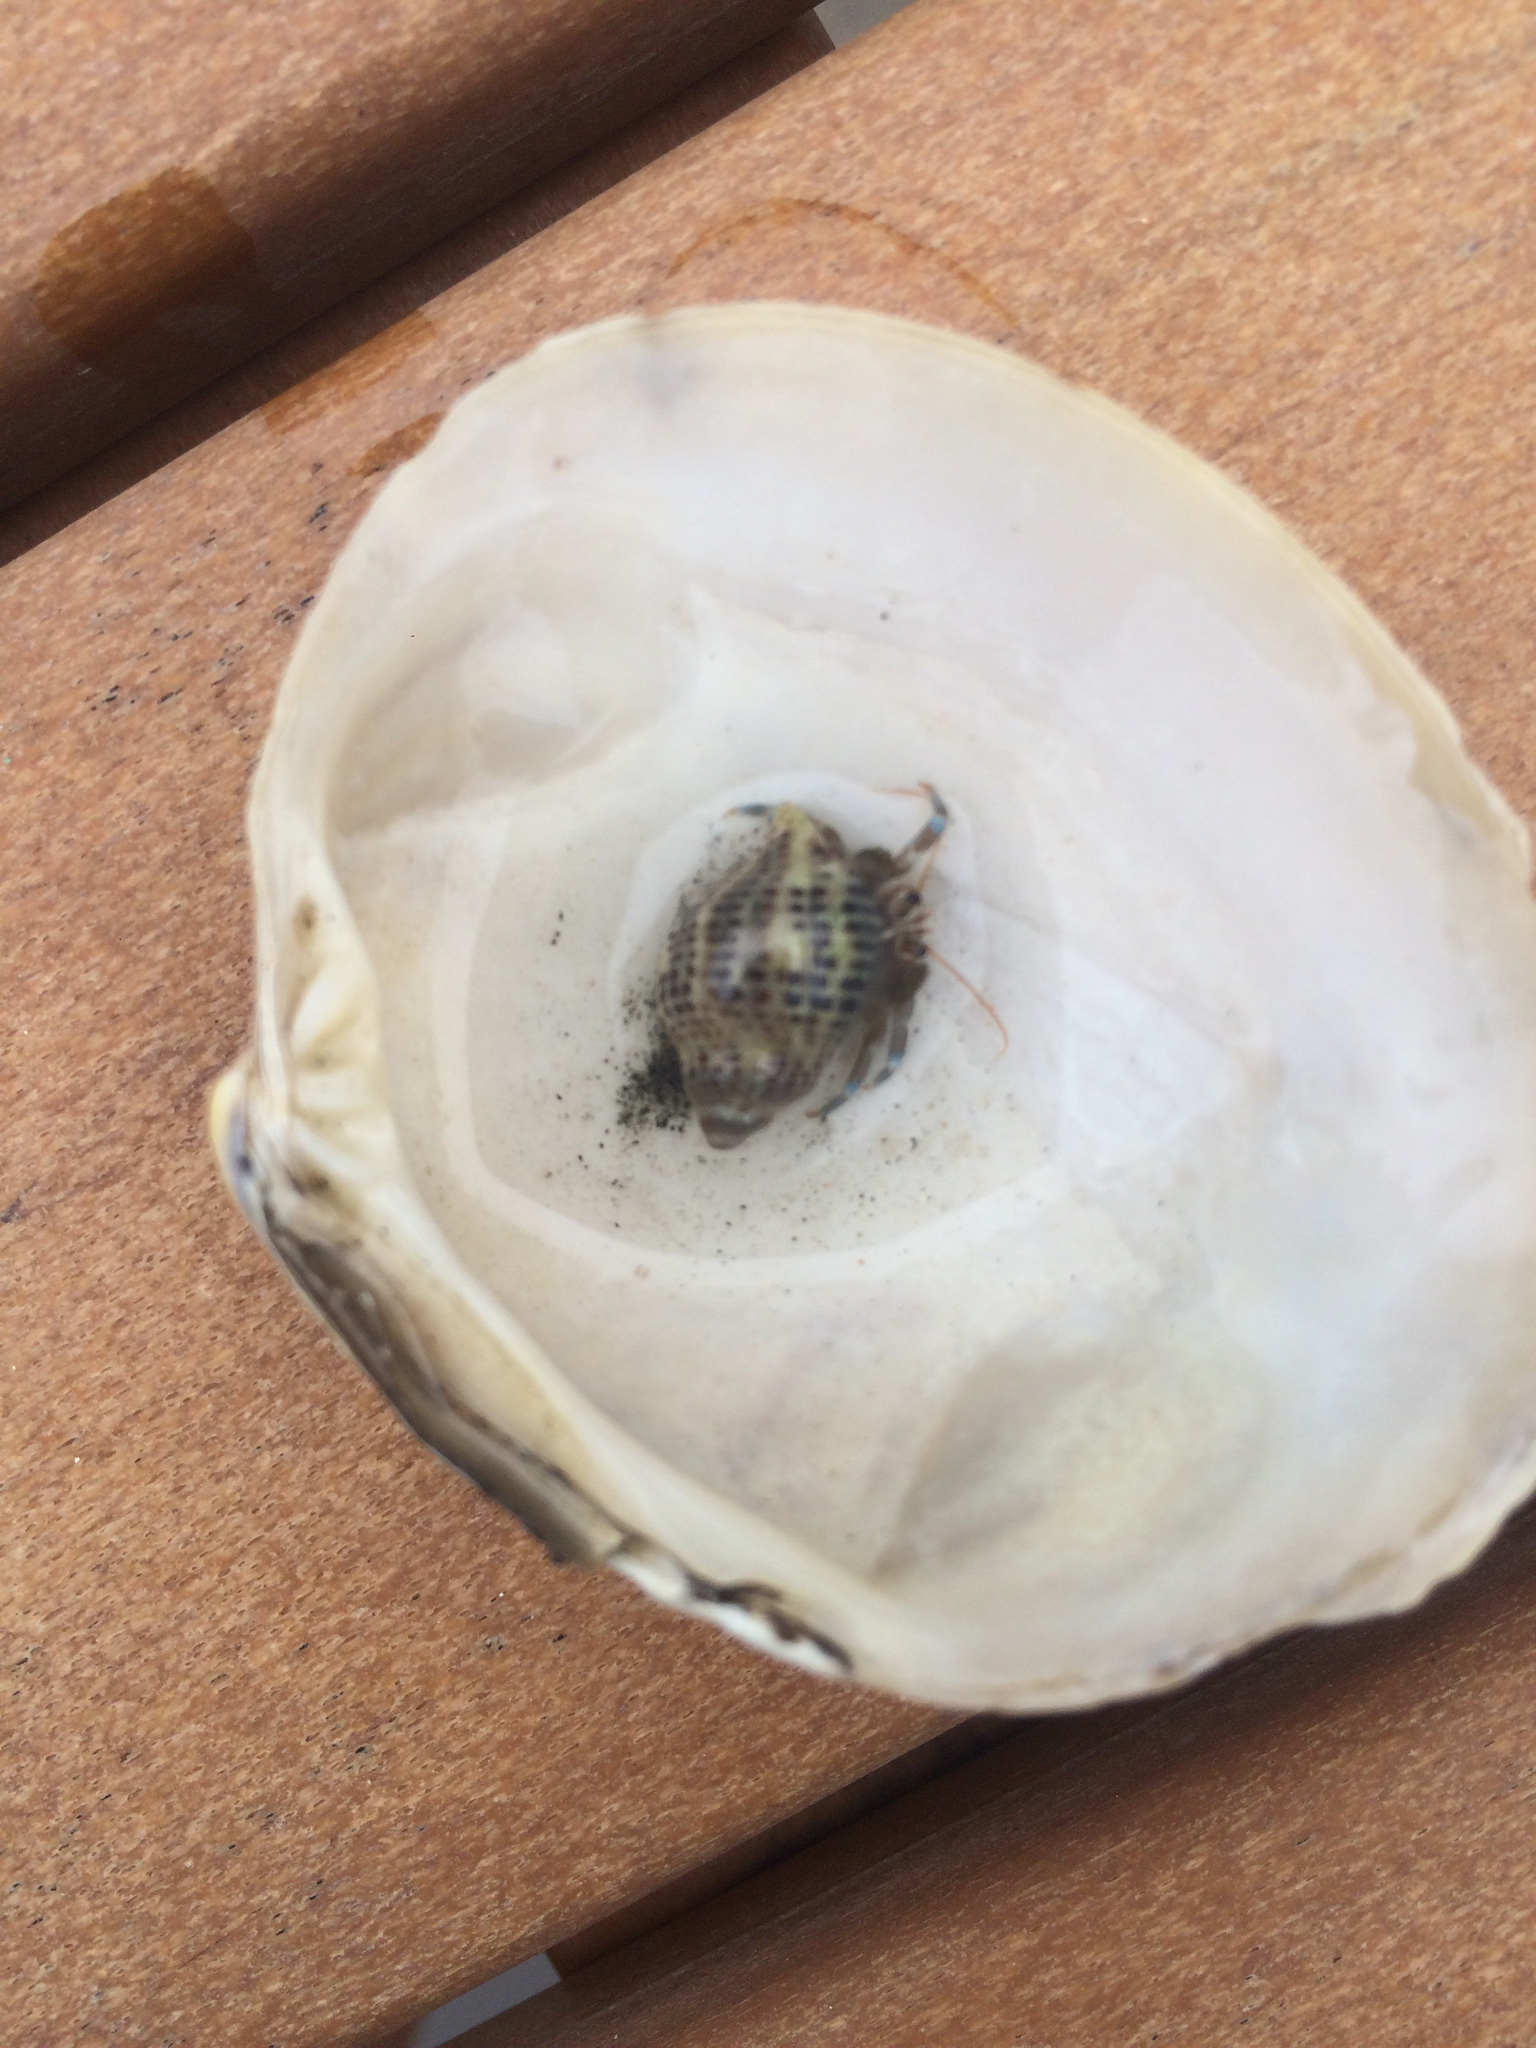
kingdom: Animalia
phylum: Mollusca
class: Gastropoda
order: Neogastropoda
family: Muricidae
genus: Acanthinucella
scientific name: Acanthinucella spirata
